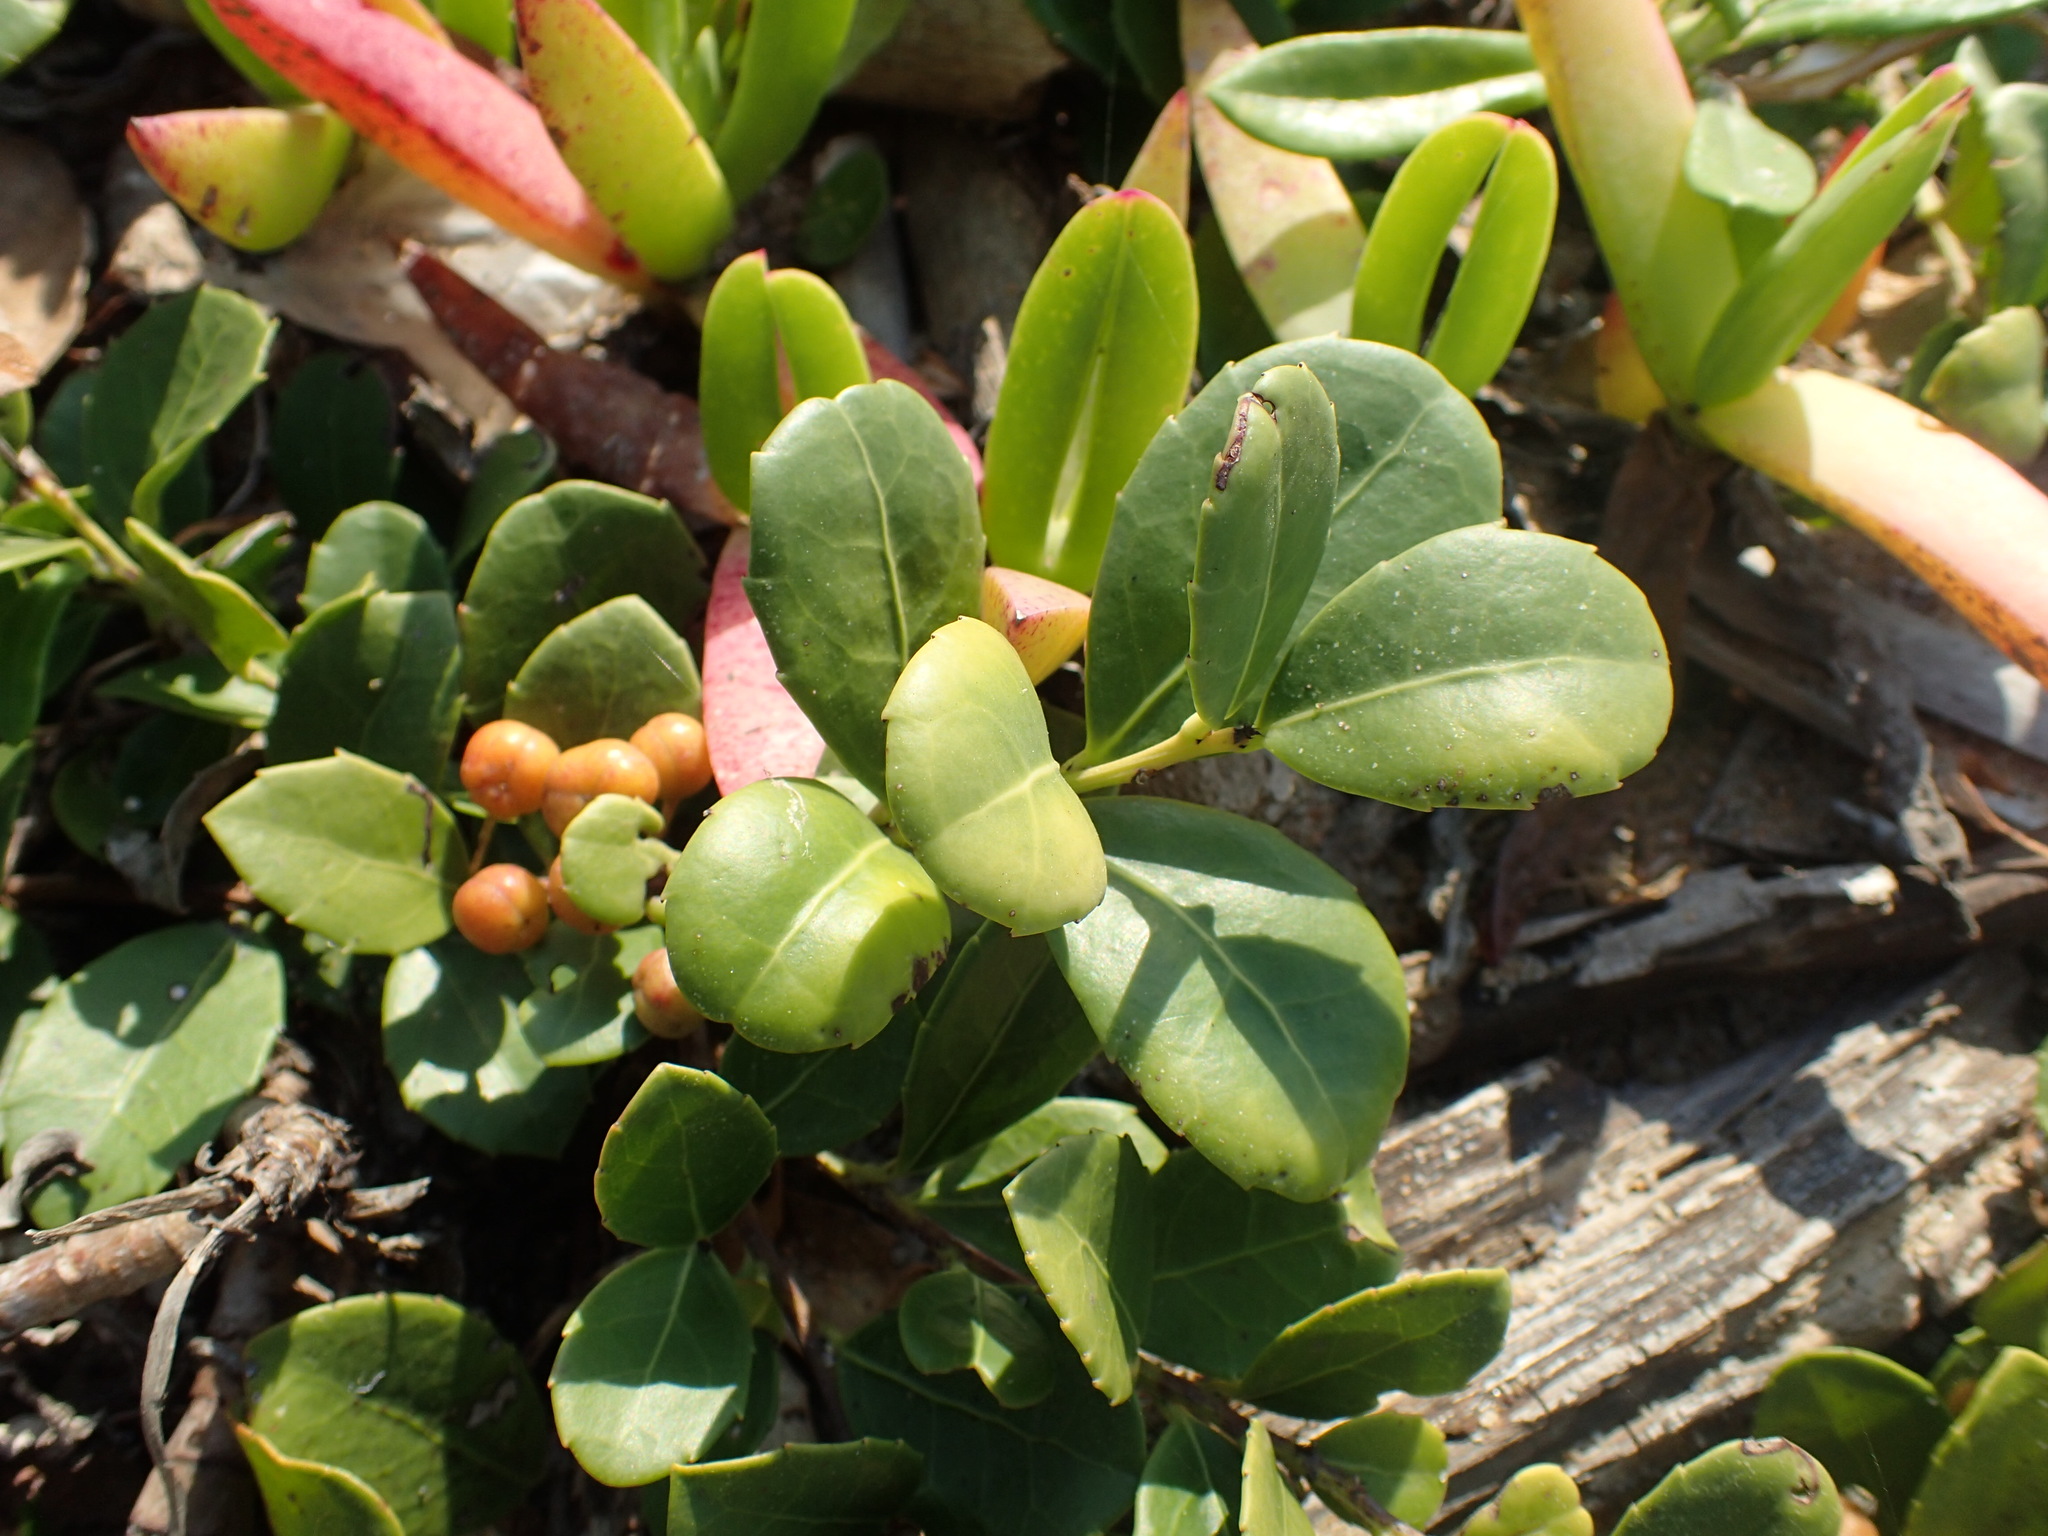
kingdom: Plantae
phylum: Tracheophyta
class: Magnoliopsida
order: Celastrales
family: Celastraceae
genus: Gymnosporia
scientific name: Gymnosporia procumbens
